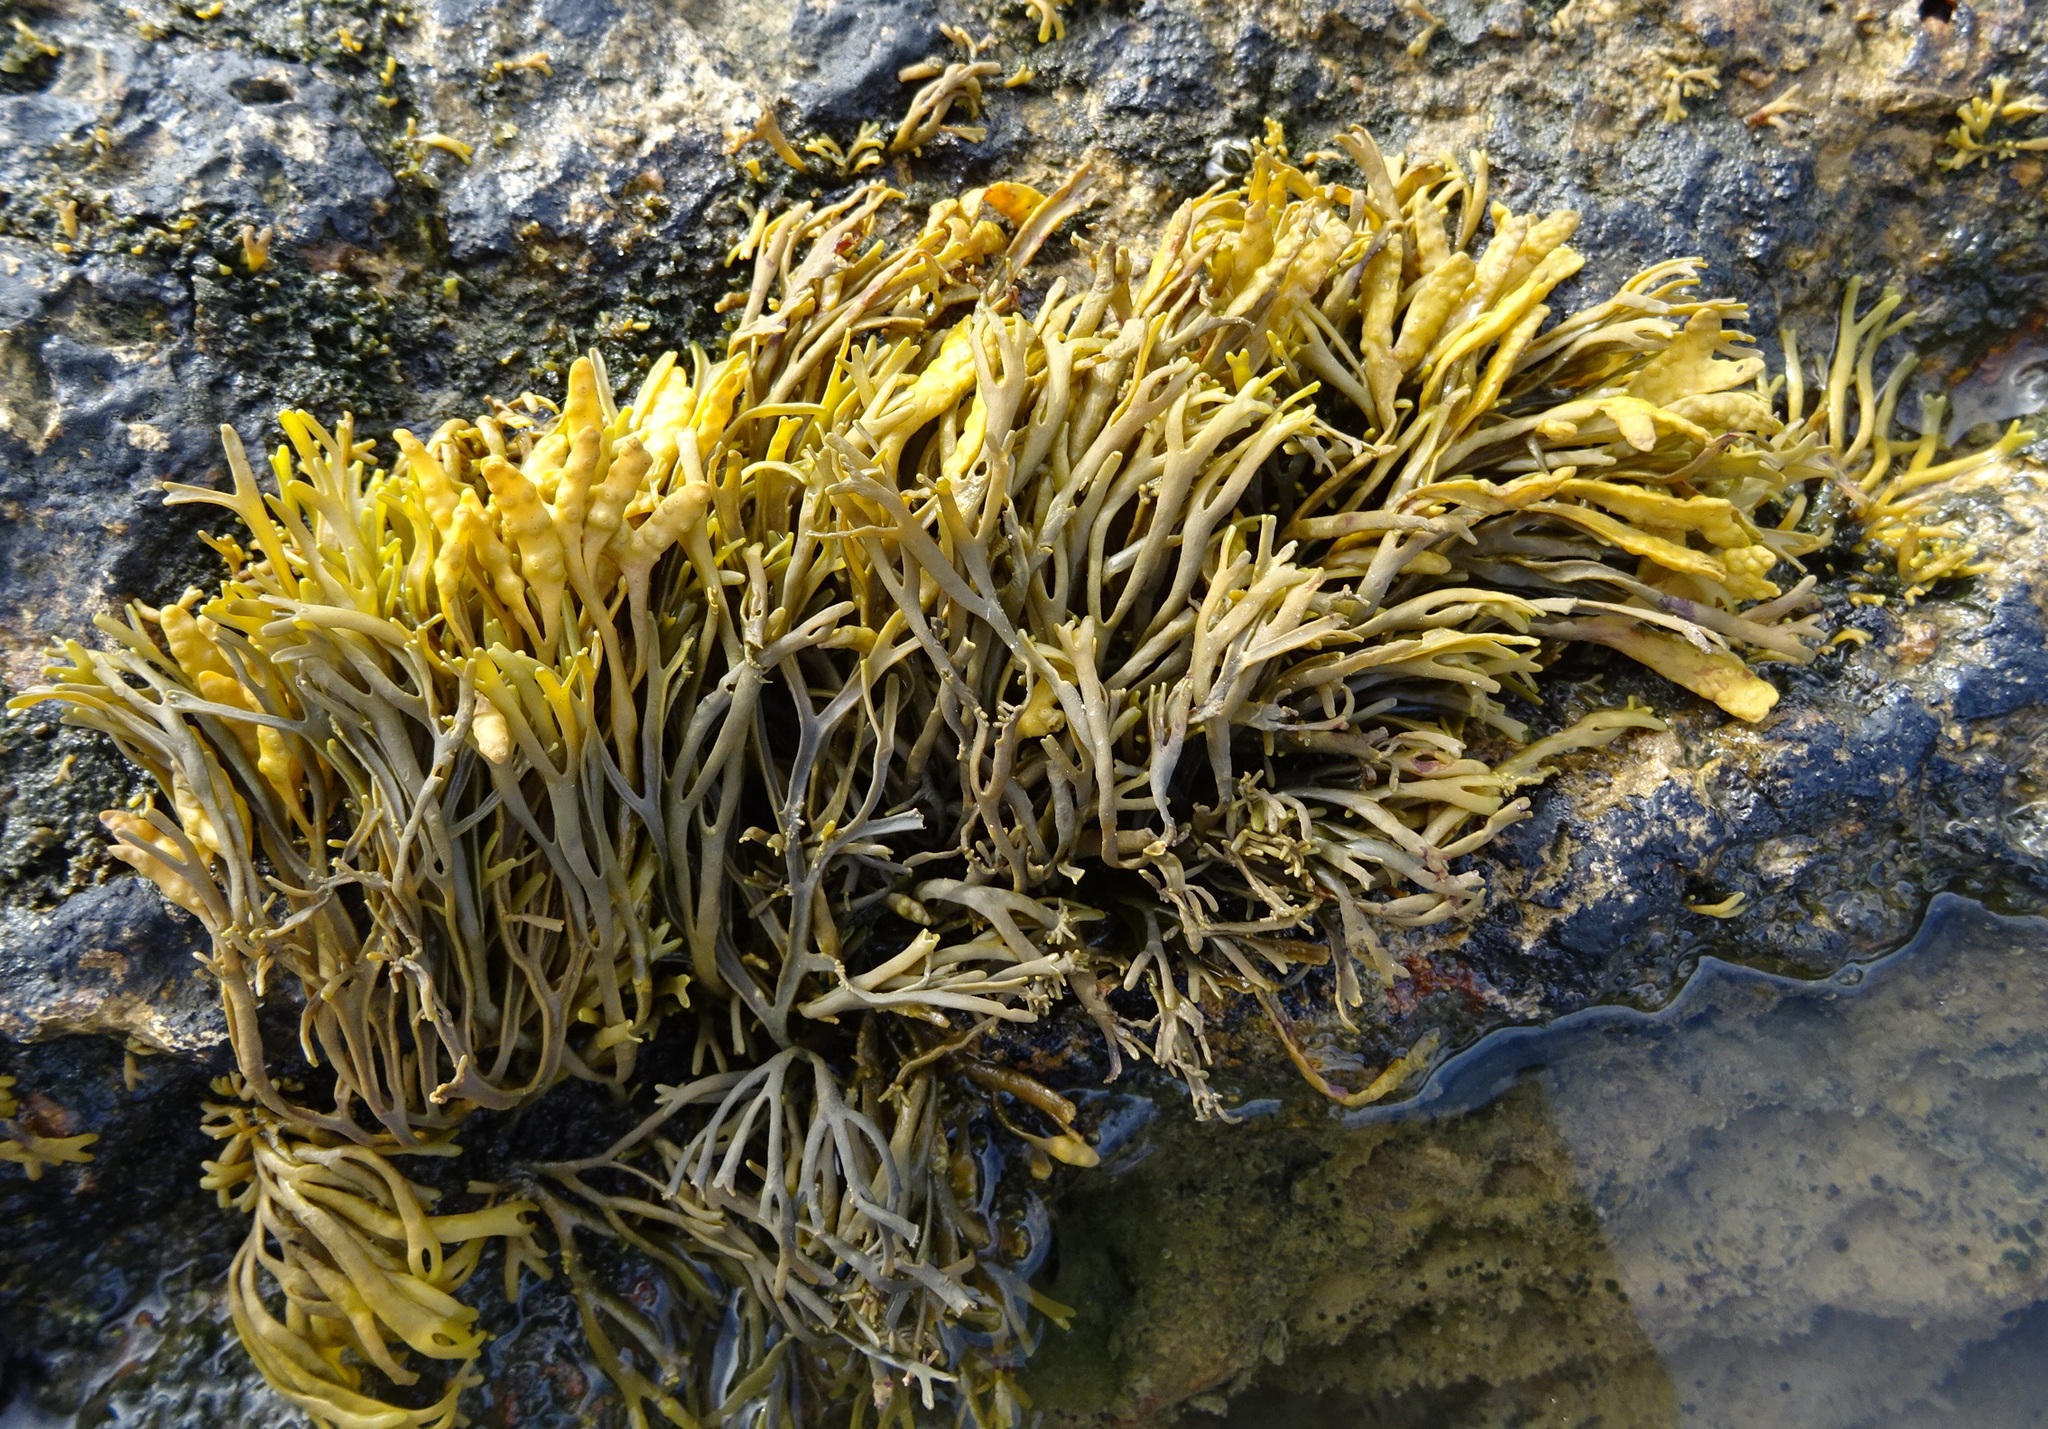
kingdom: Chromista
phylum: Ochrophyta
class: Phaeophyceae
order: Fucales
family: Fucaceae
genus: Pelvetia
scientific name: Pelvetia canaliculata
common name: Channelled wrack
